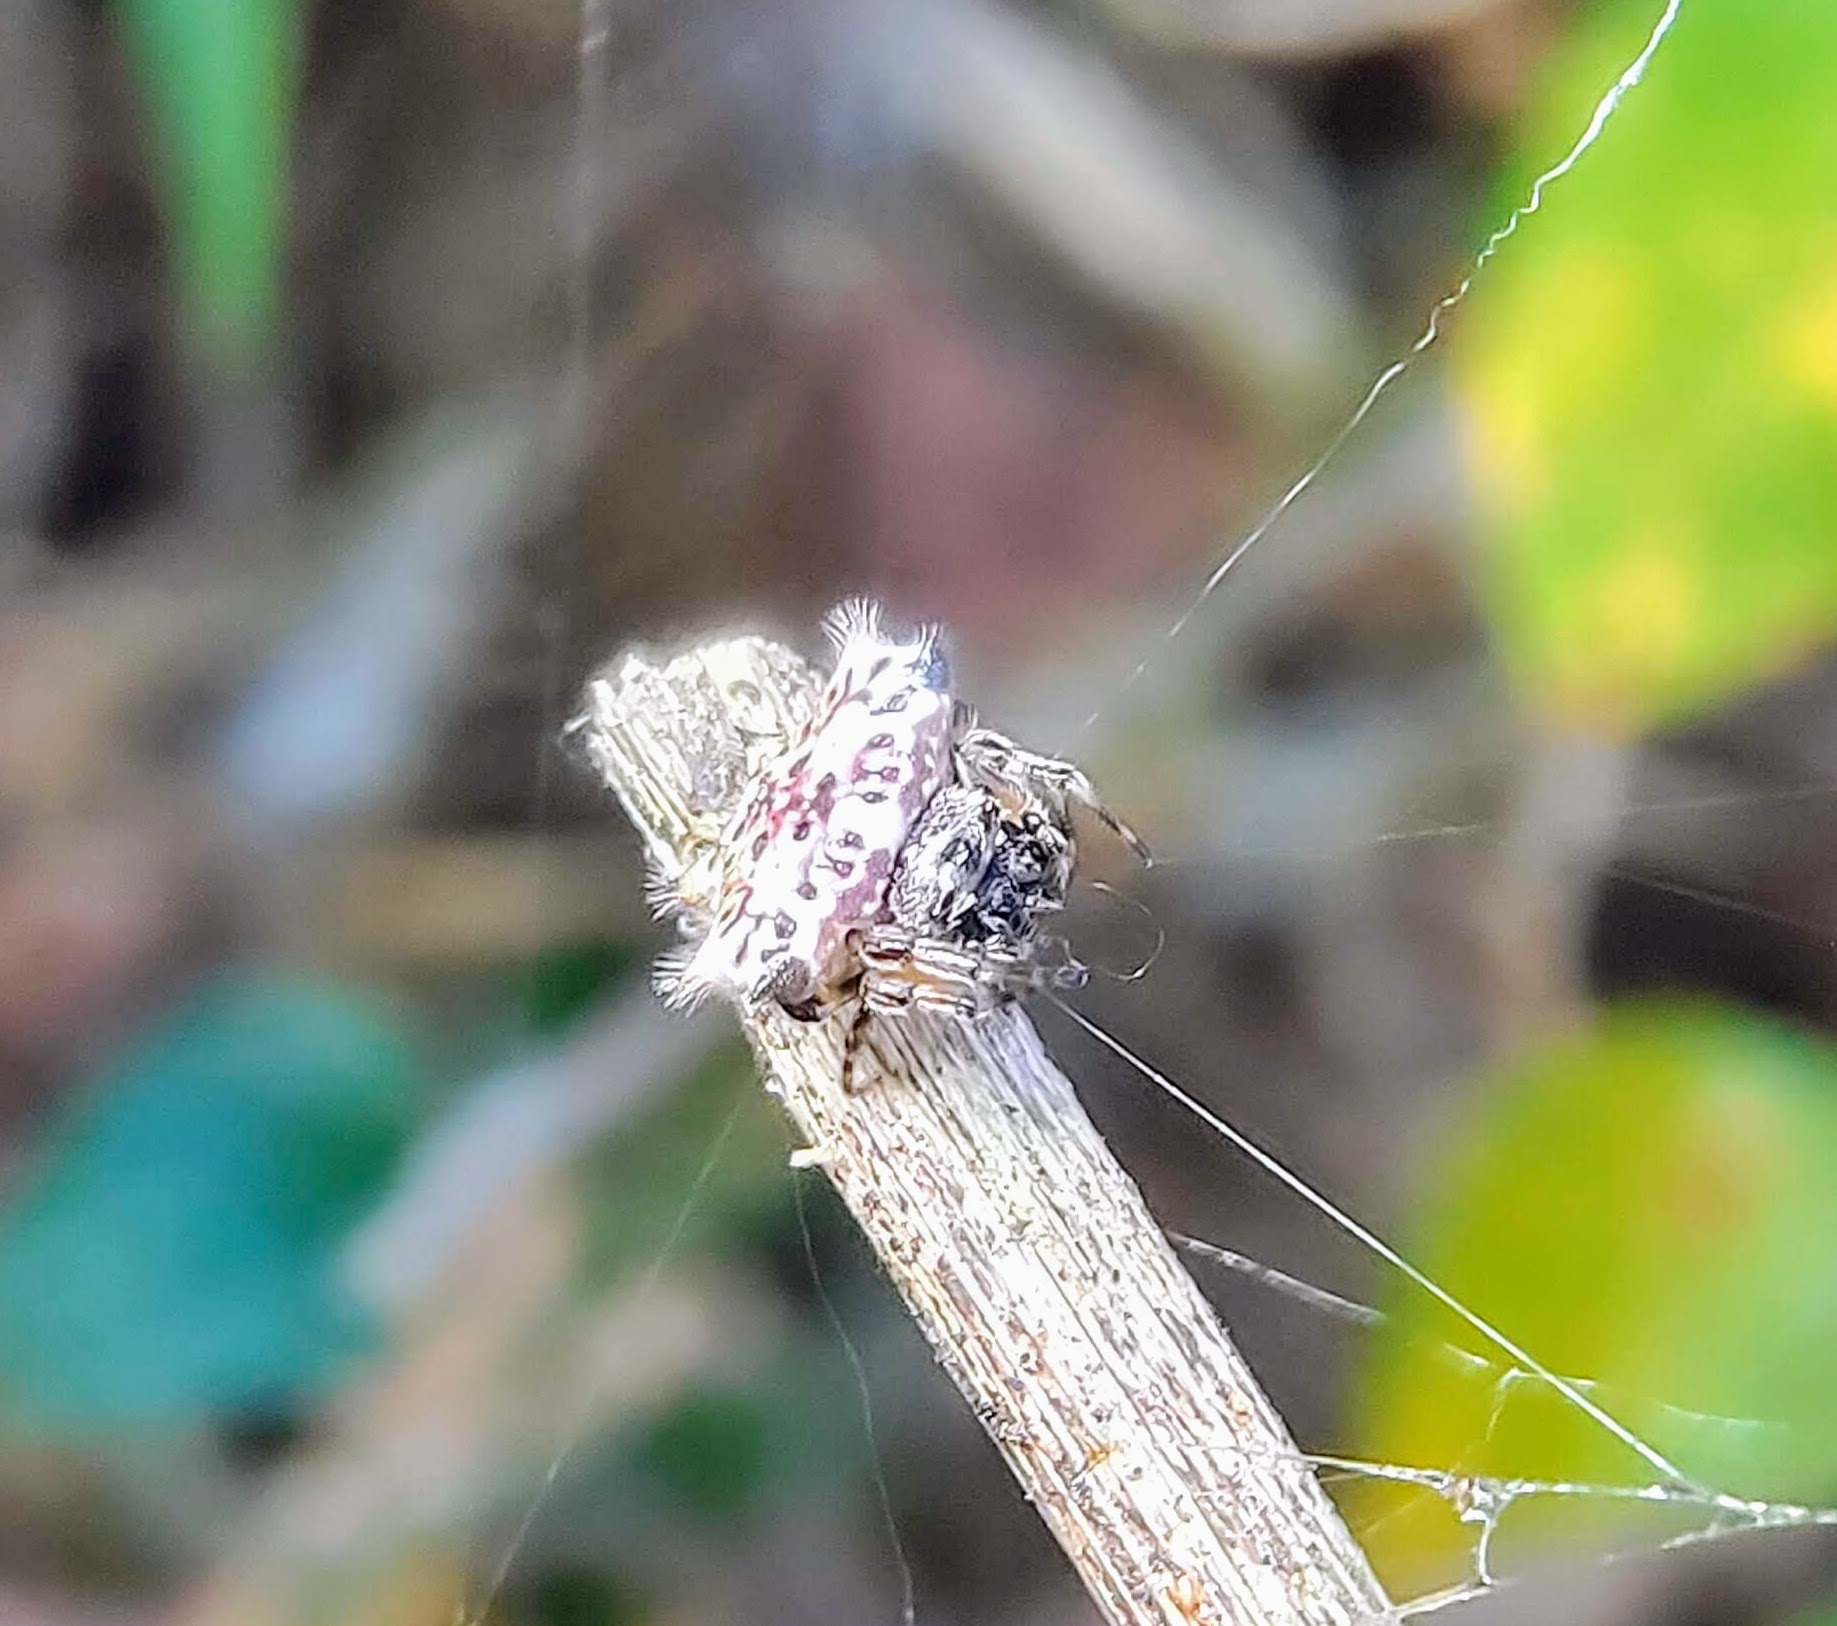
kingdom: Animalia
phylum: Arthropoda
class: Arachnida
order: Araneae
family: Araneidae
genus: Gasteracantha
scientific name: Gasteracantha kuhli
